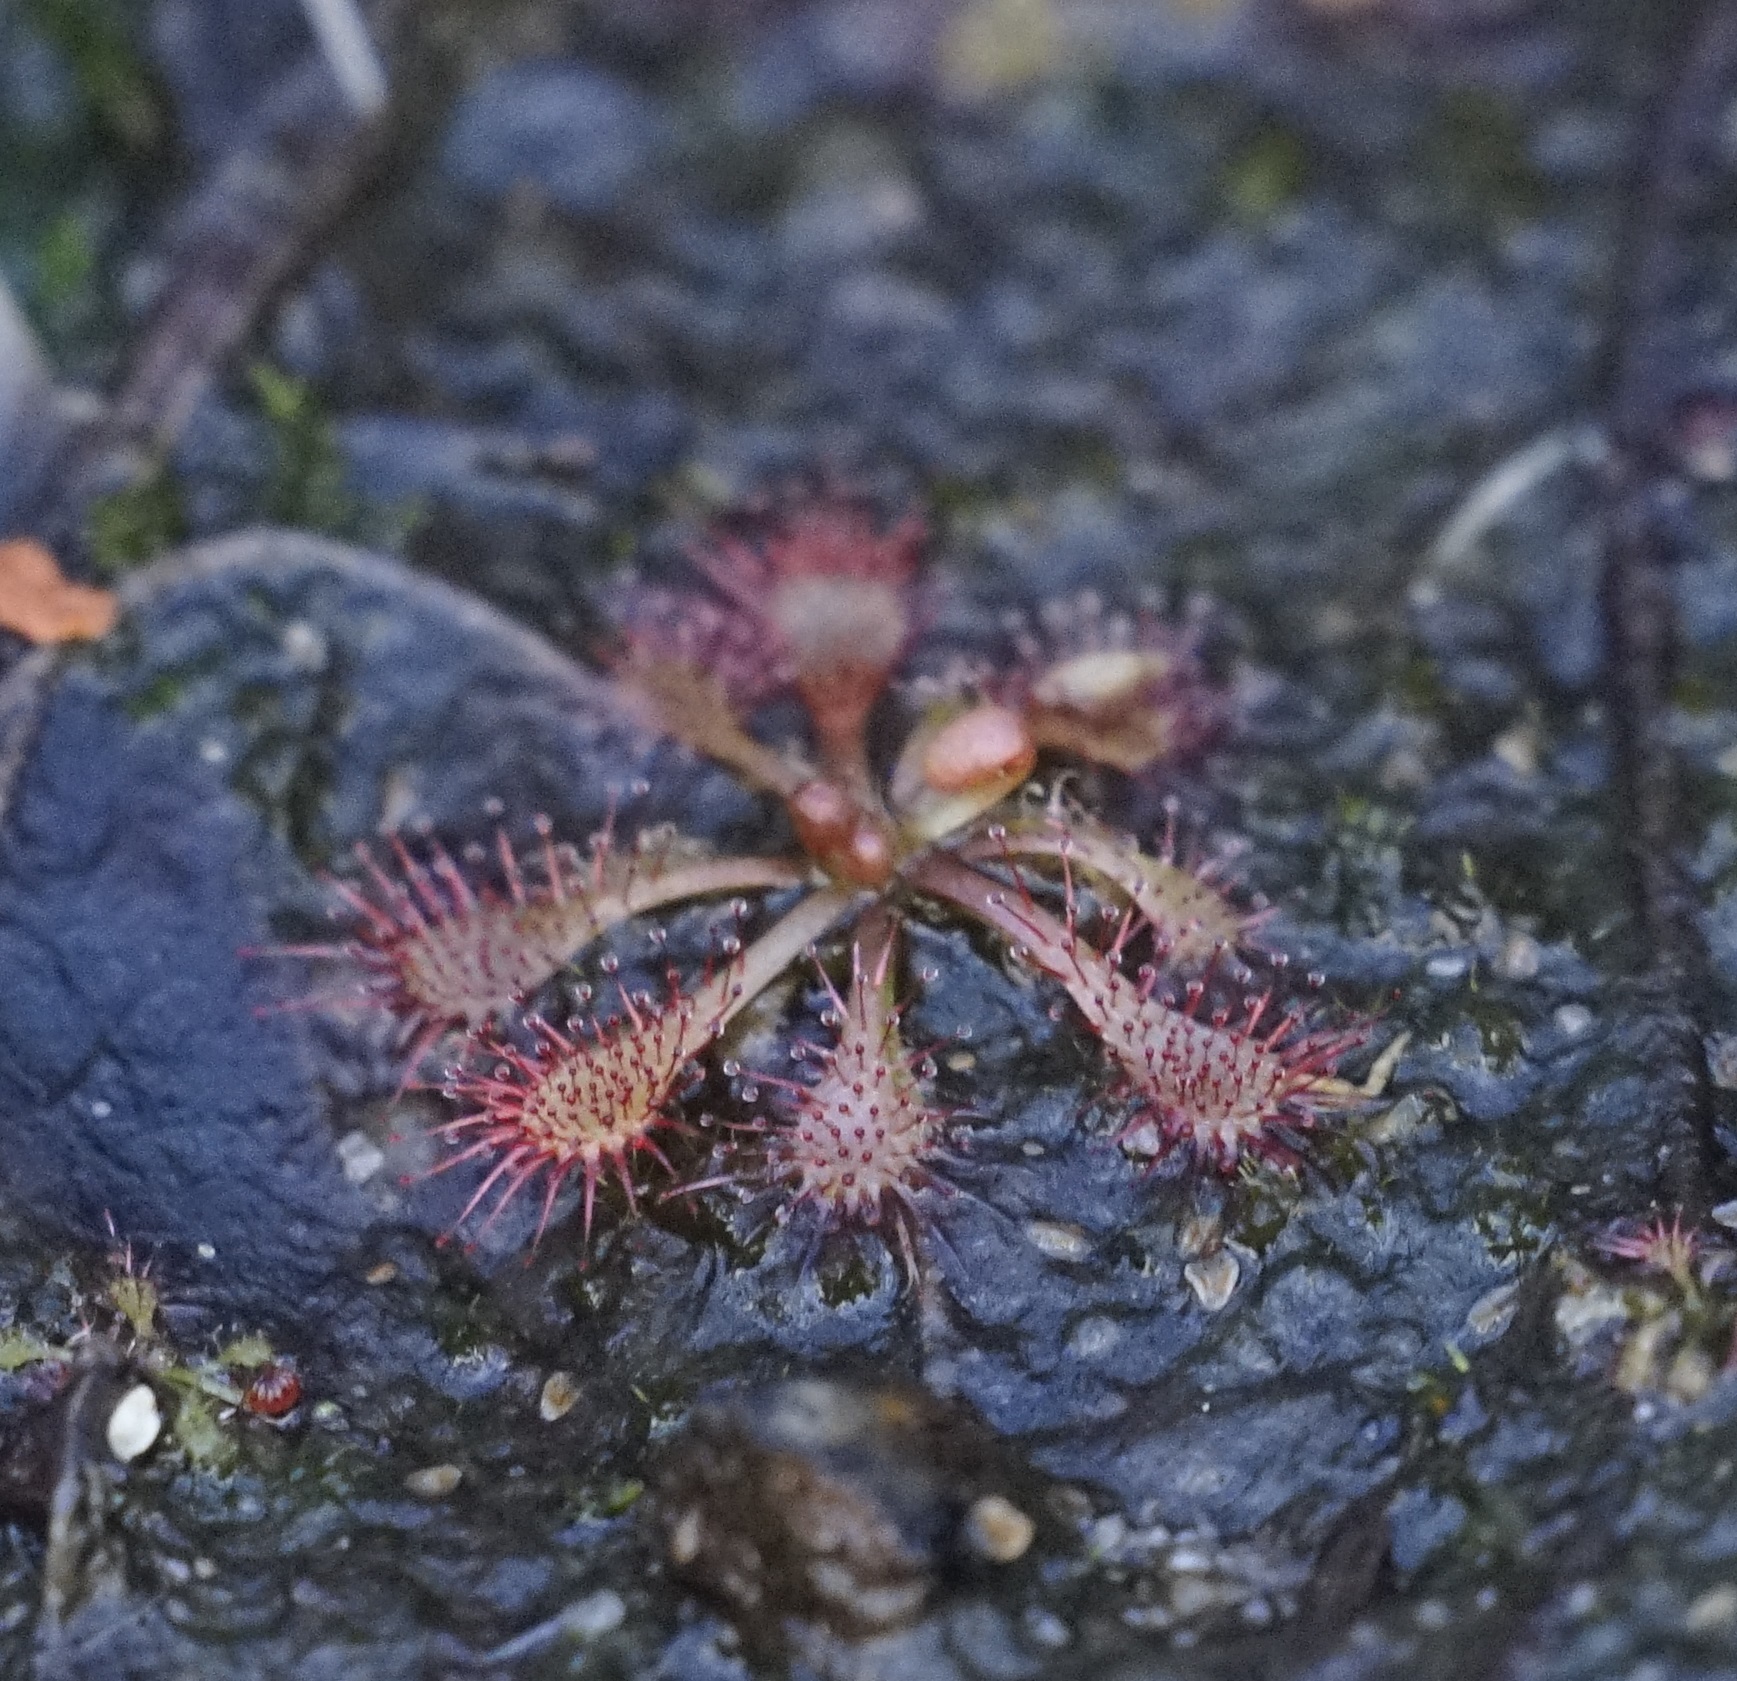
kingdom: Plantae
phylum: Tracheophyta
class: Magnoliopsida
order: Caryophyllales
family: Droseraceae
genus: Drosera
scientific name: Drosera spatulata
